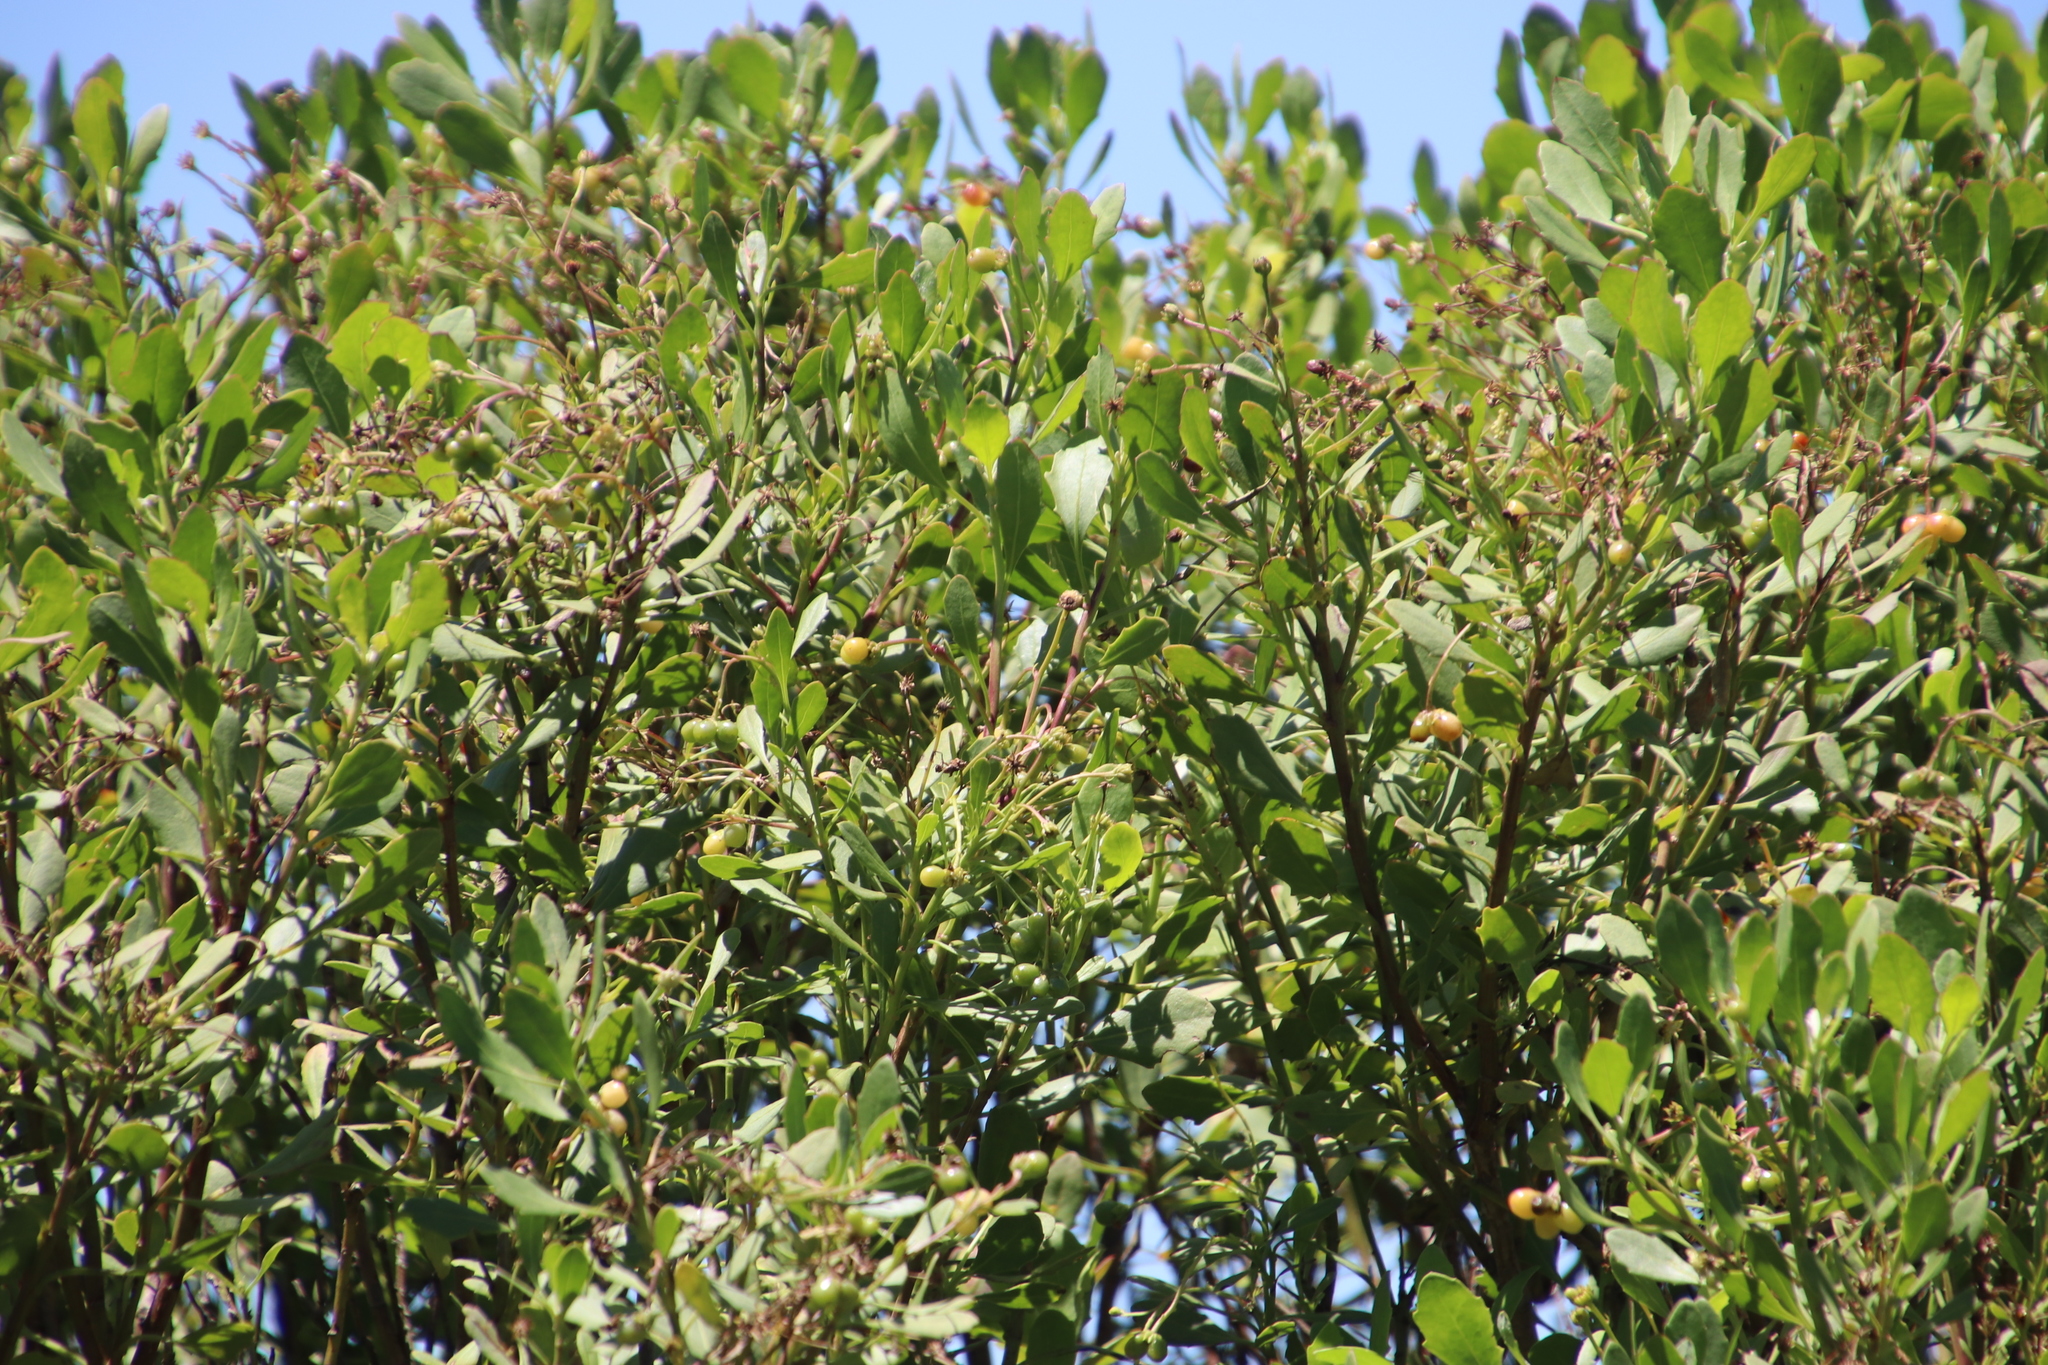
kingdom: Plantae
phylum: Tracheophyta
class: Magnoliopsida
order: Asterales
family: Asteraceae
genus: Osteospermum
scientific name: Osteospermum moniliferum
